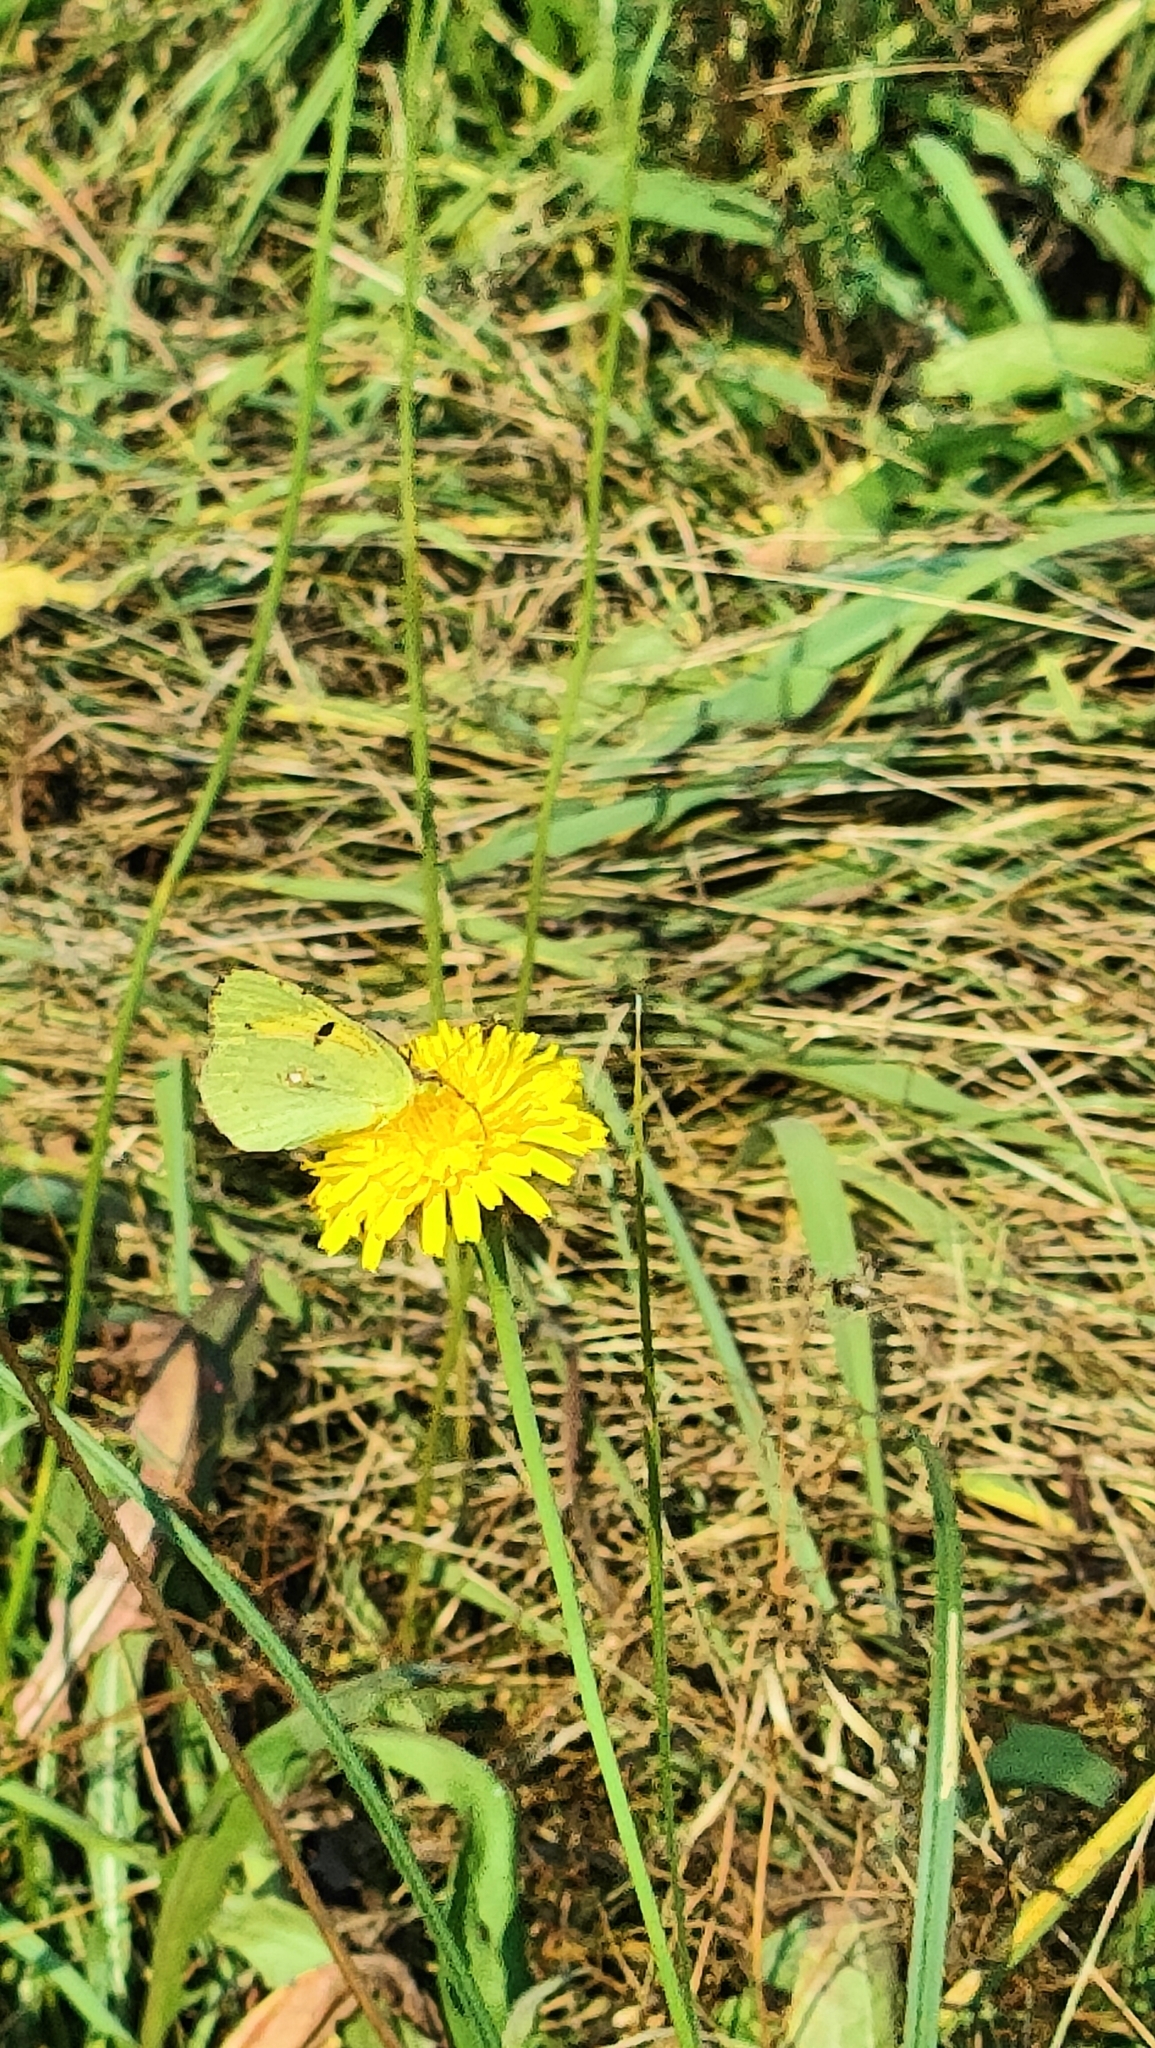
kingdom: Animalia
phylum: Arthropoda
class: Insecta
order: Lepidoptera
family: Pieridae
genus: Colias
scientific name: Colias croceus
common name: Clouded yellow
